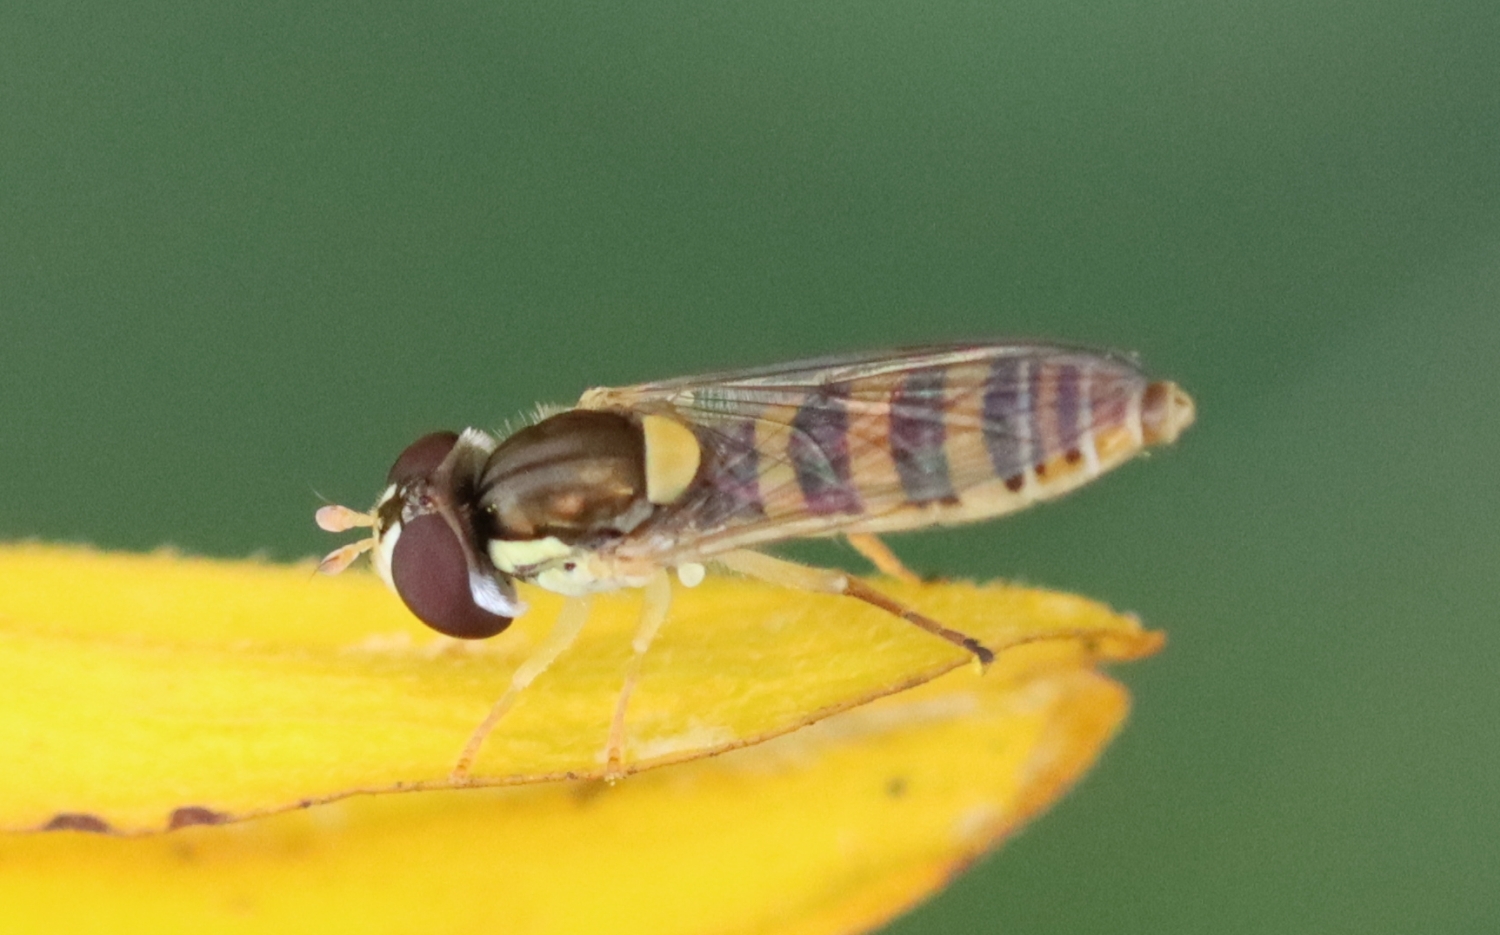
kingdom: Animalia
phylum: Arthropoda
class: Insecta
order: Diptera
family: Syrphidae
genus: Sphaerophoria
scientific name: Sphaerophoria contigua
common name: Tufted globetail
